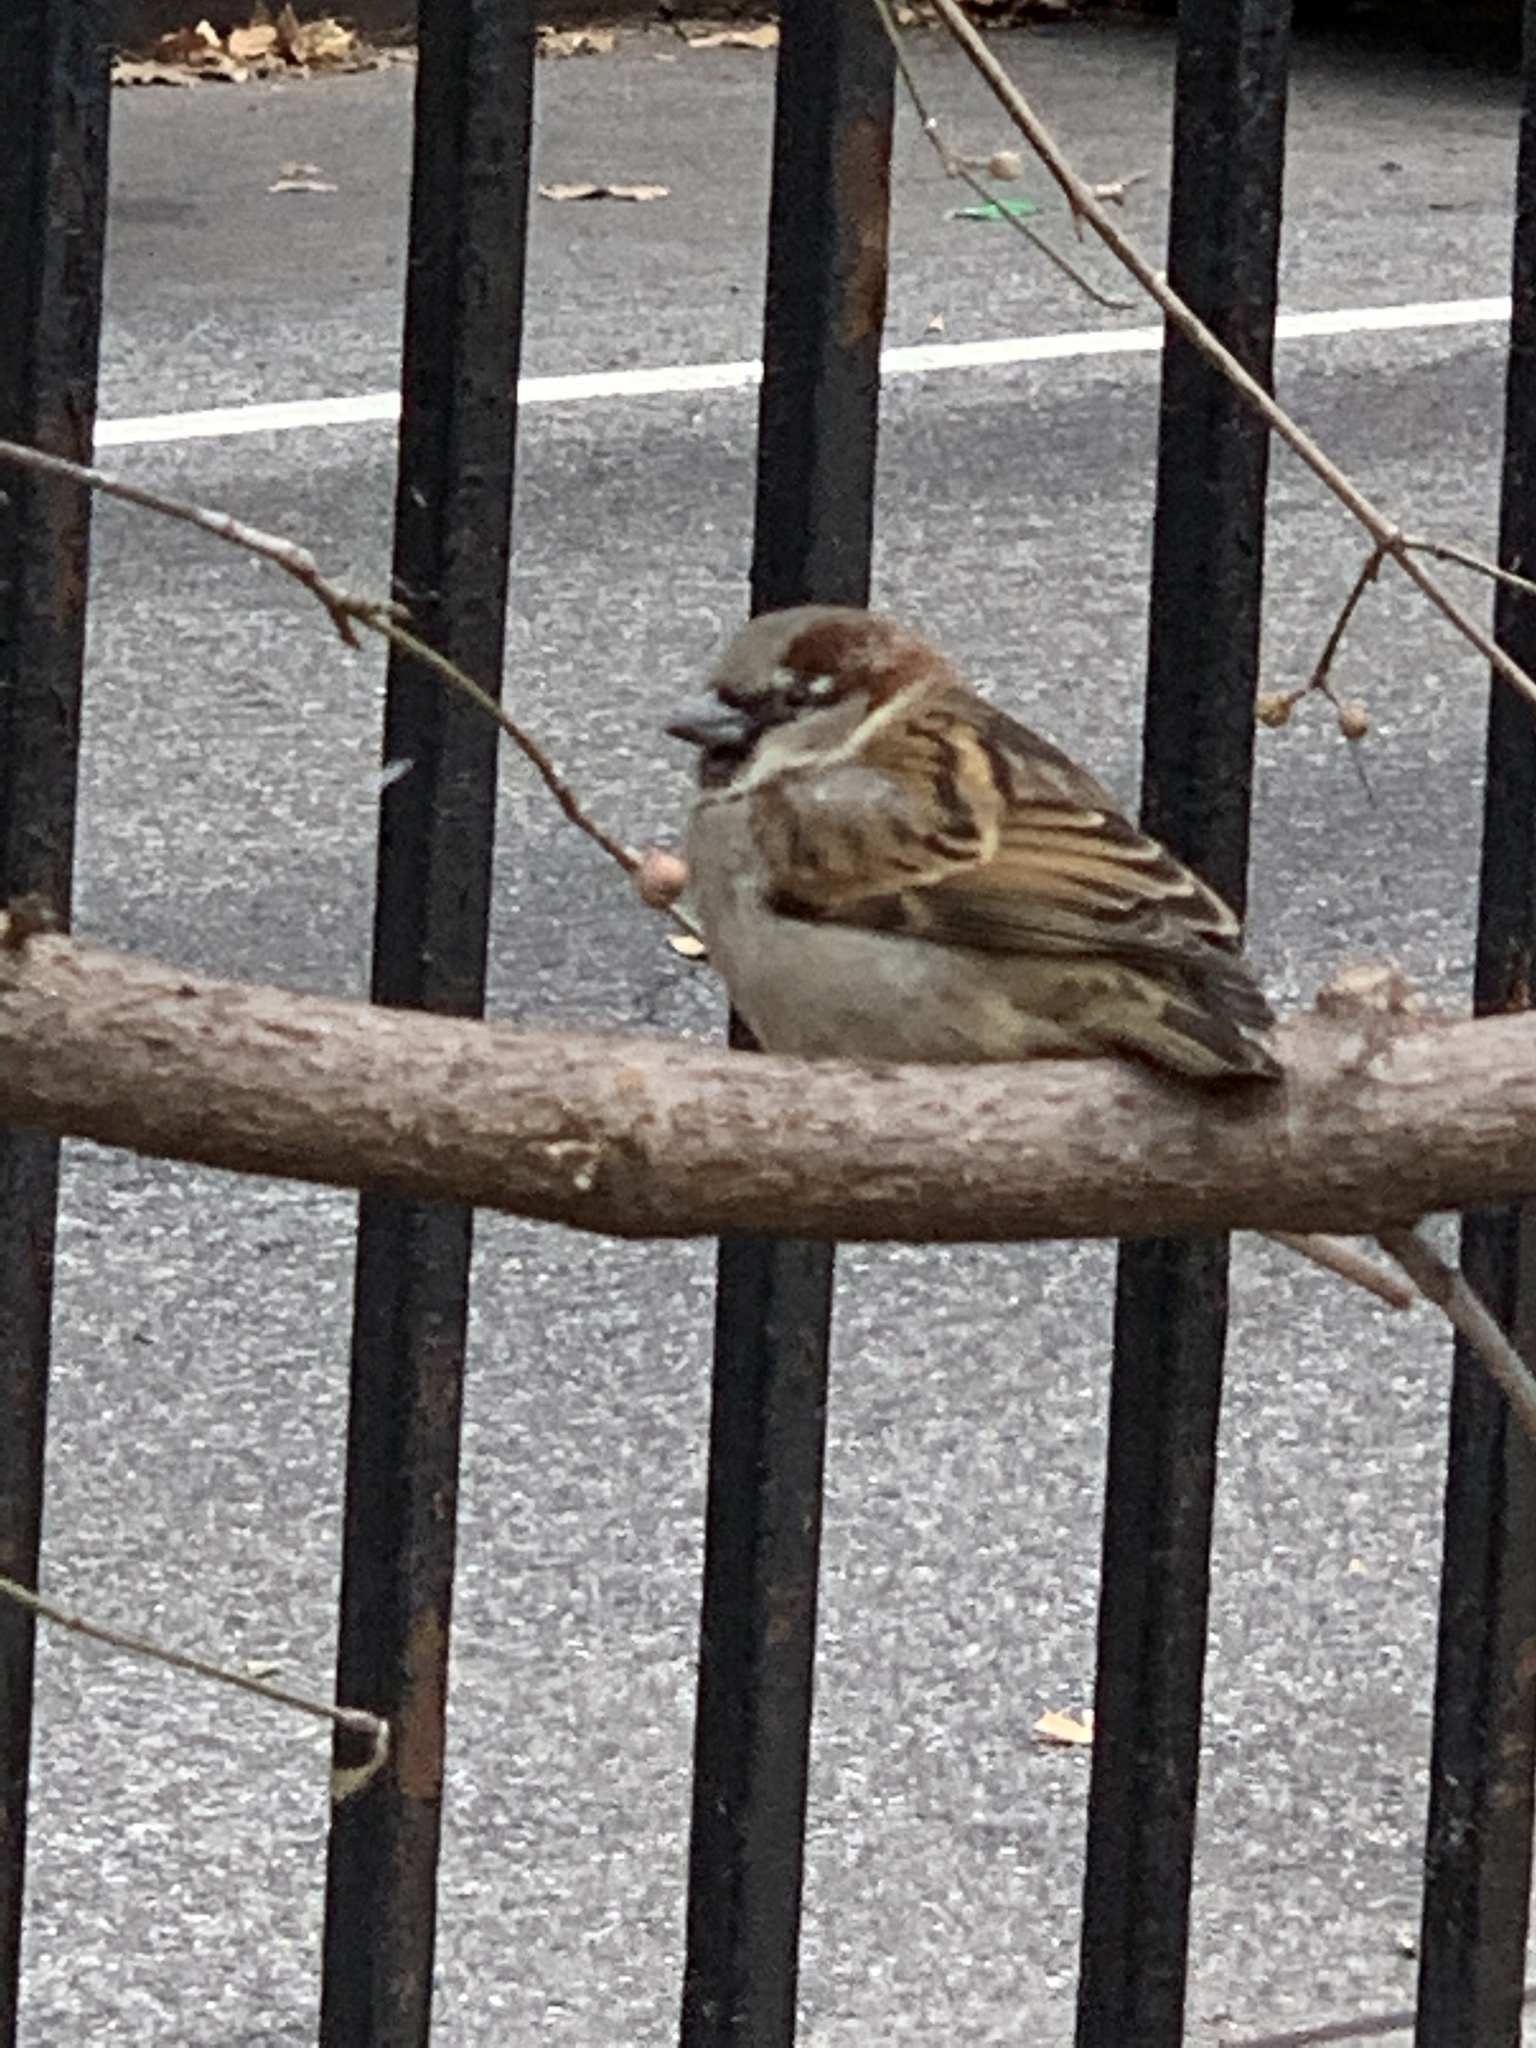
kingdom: Animalia
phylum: Chordata
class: Aves
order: Passeriformes
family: Passeridae
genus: Passer
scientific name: Passer domesticus
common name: House sparrow
